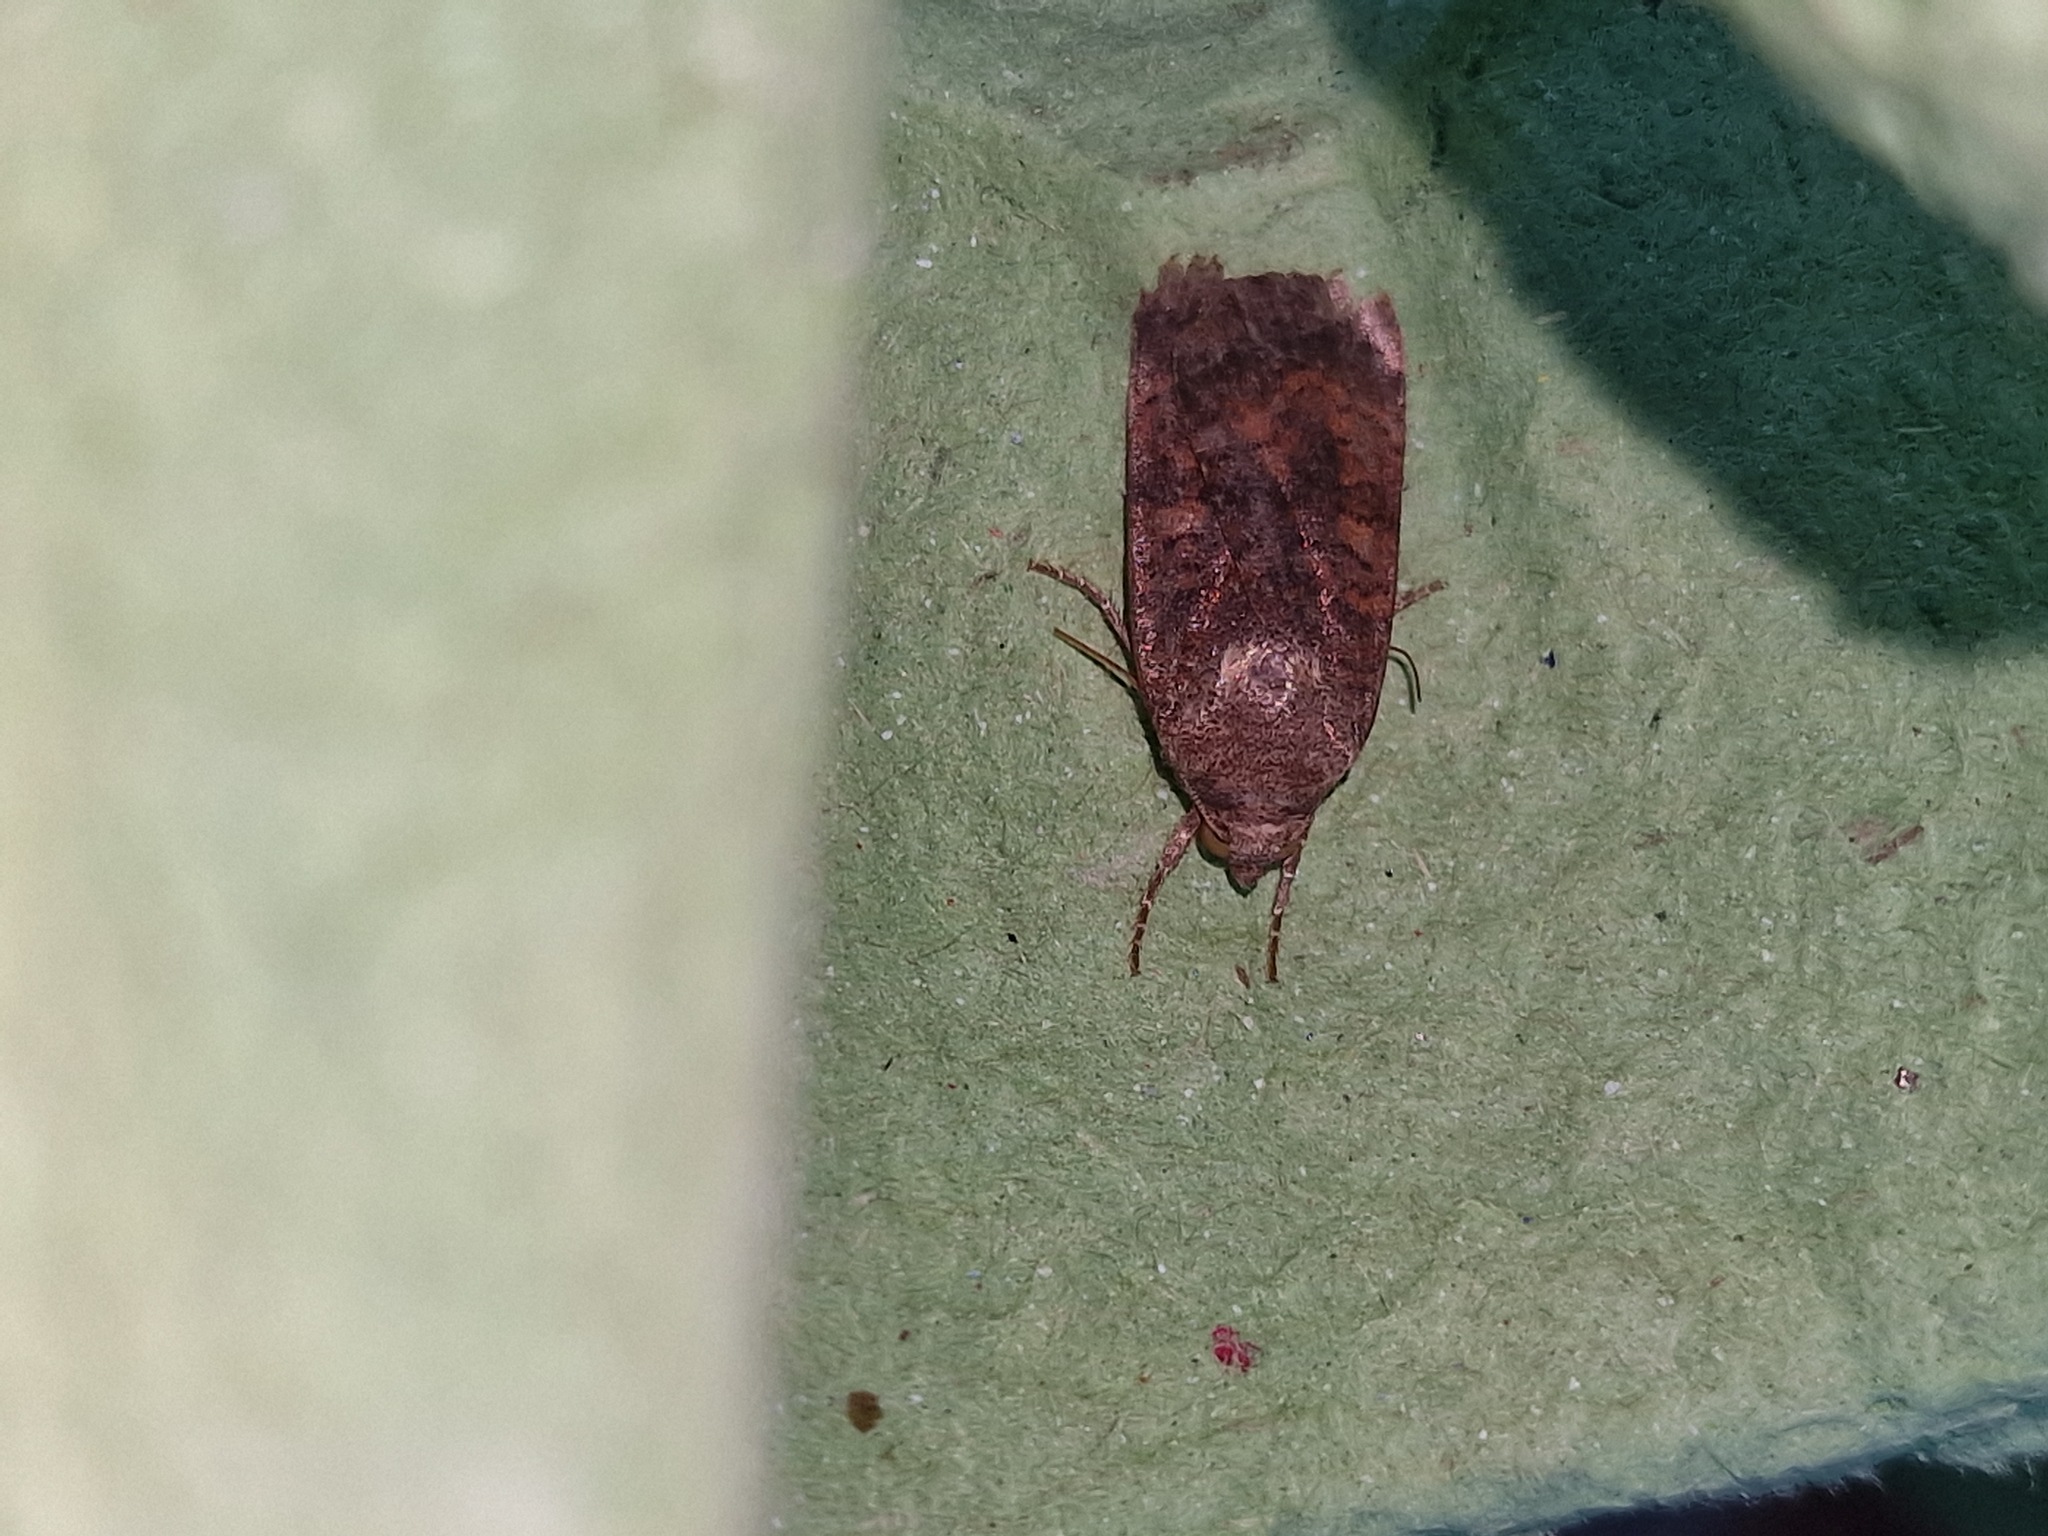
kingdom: Animalia
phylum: Arthropoda
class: Insecta
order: Lepidoptera
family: Noctuidae
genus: Noctua
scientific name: Noctua interjecta
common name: Least yellow underwing
